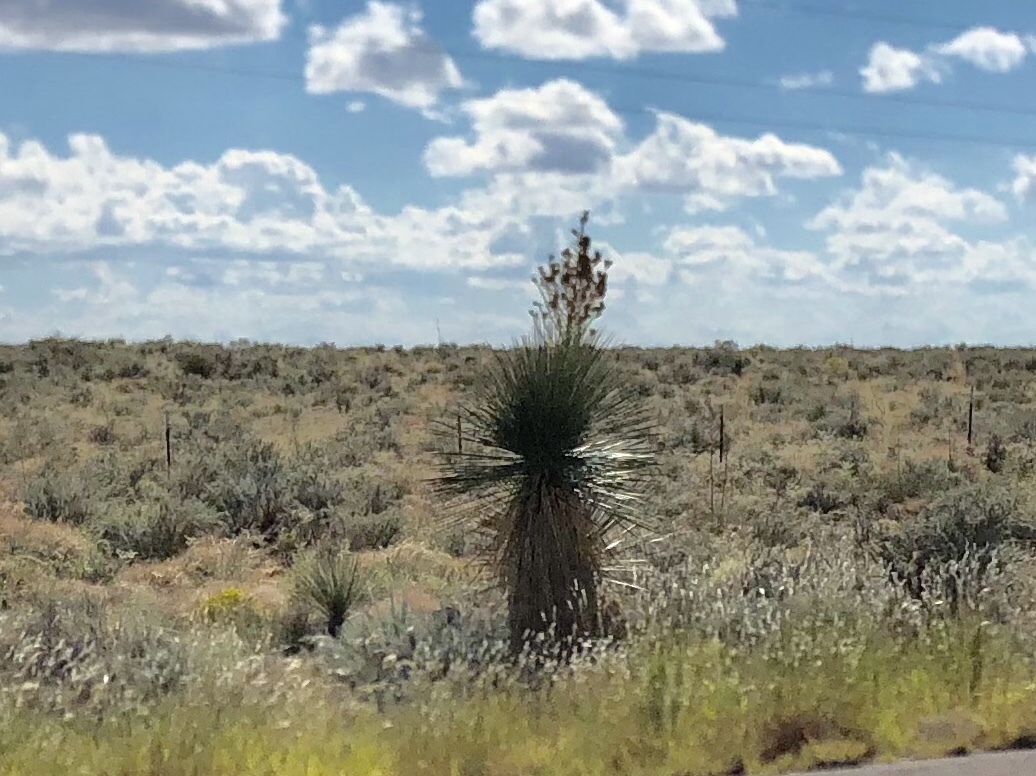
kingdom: Plantae
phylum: Tracheophyta
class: Liliopsida
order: Asparagales
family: Asparagaceae
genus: Yucca
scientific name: Yucca elata
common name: Palmella
